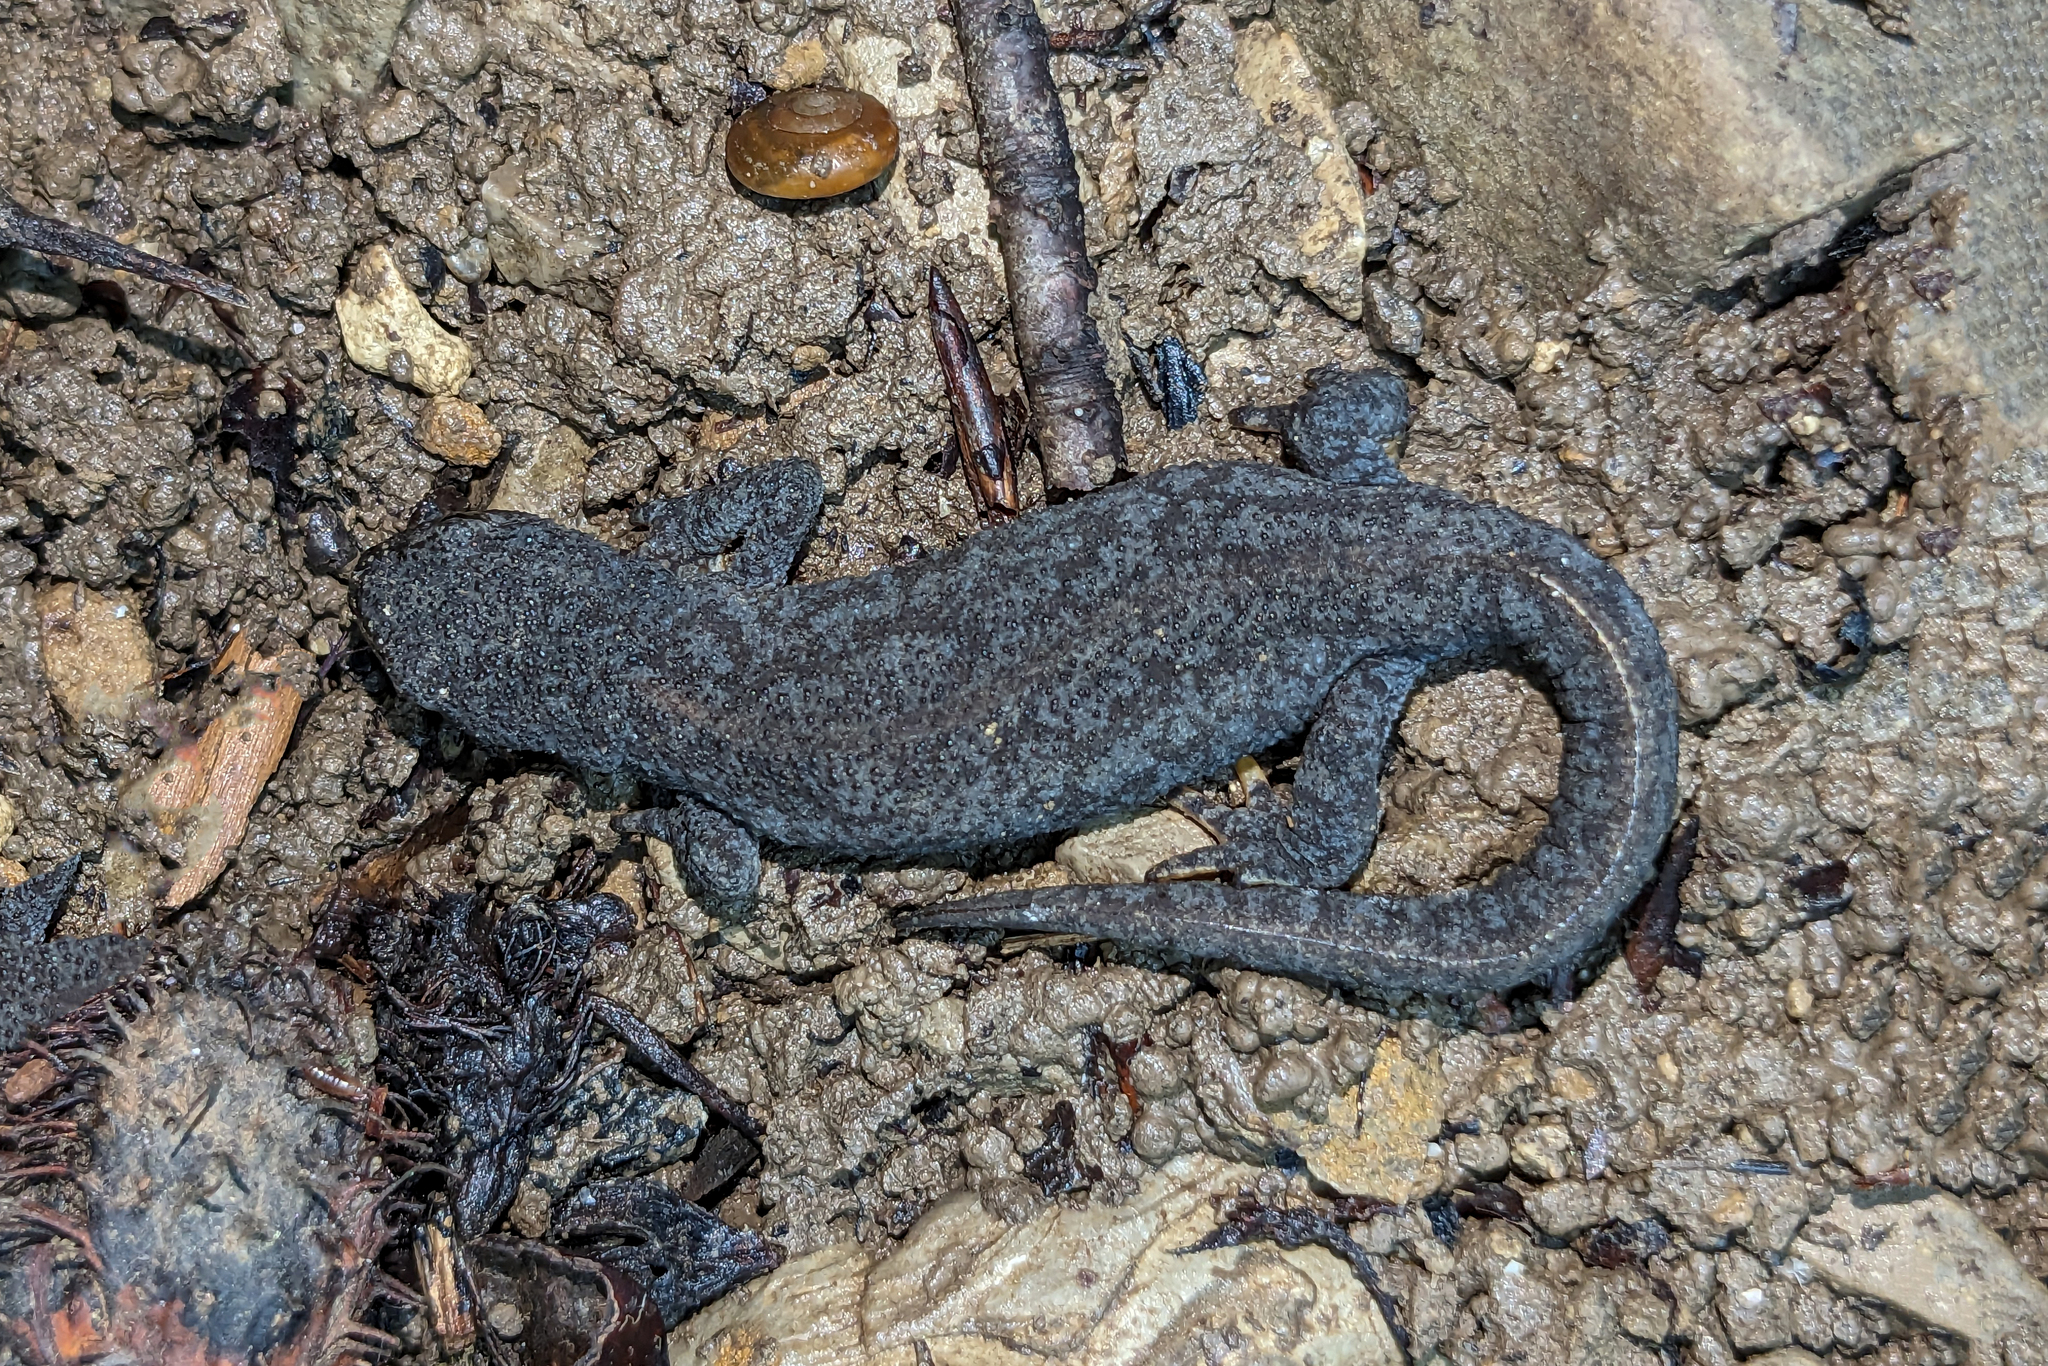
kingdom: Animalia
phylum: Chordata
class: Amphibia
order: Caudata
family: Salamandridae
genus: Ichthyosaura
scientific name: Ichthyosaura alpestris
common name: Alpine newt
